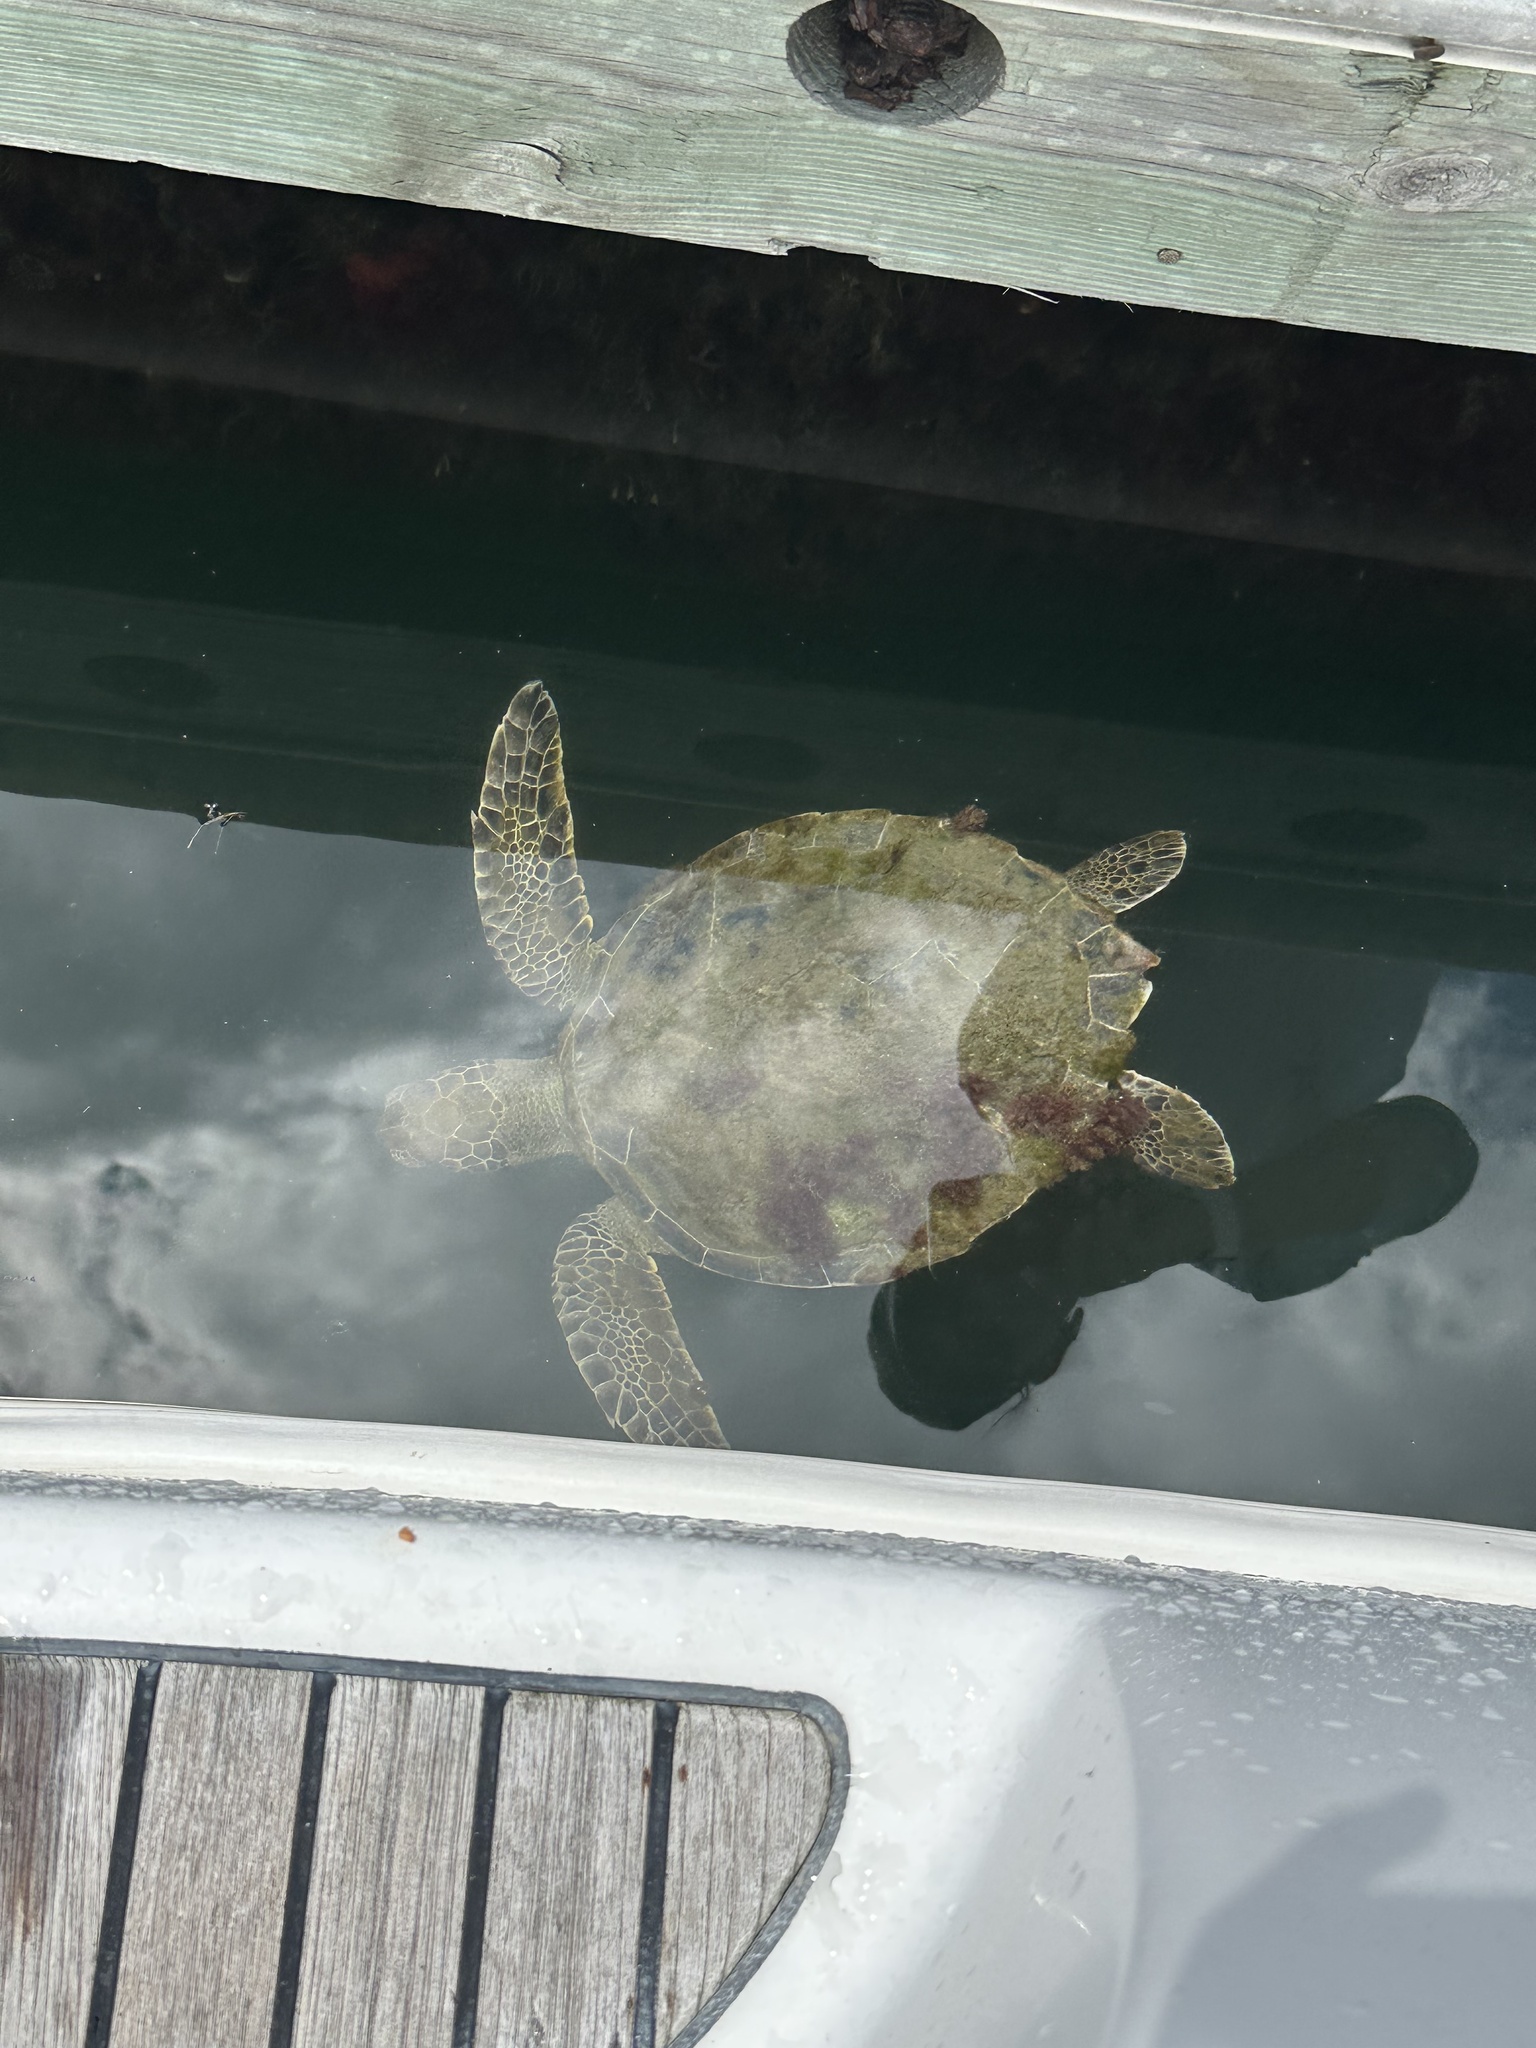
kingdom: Animalia
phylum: Chordata
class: Testudines
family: Cheloniidae
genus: Chelonia
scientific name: Chelonia mydas
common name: Green turtle
